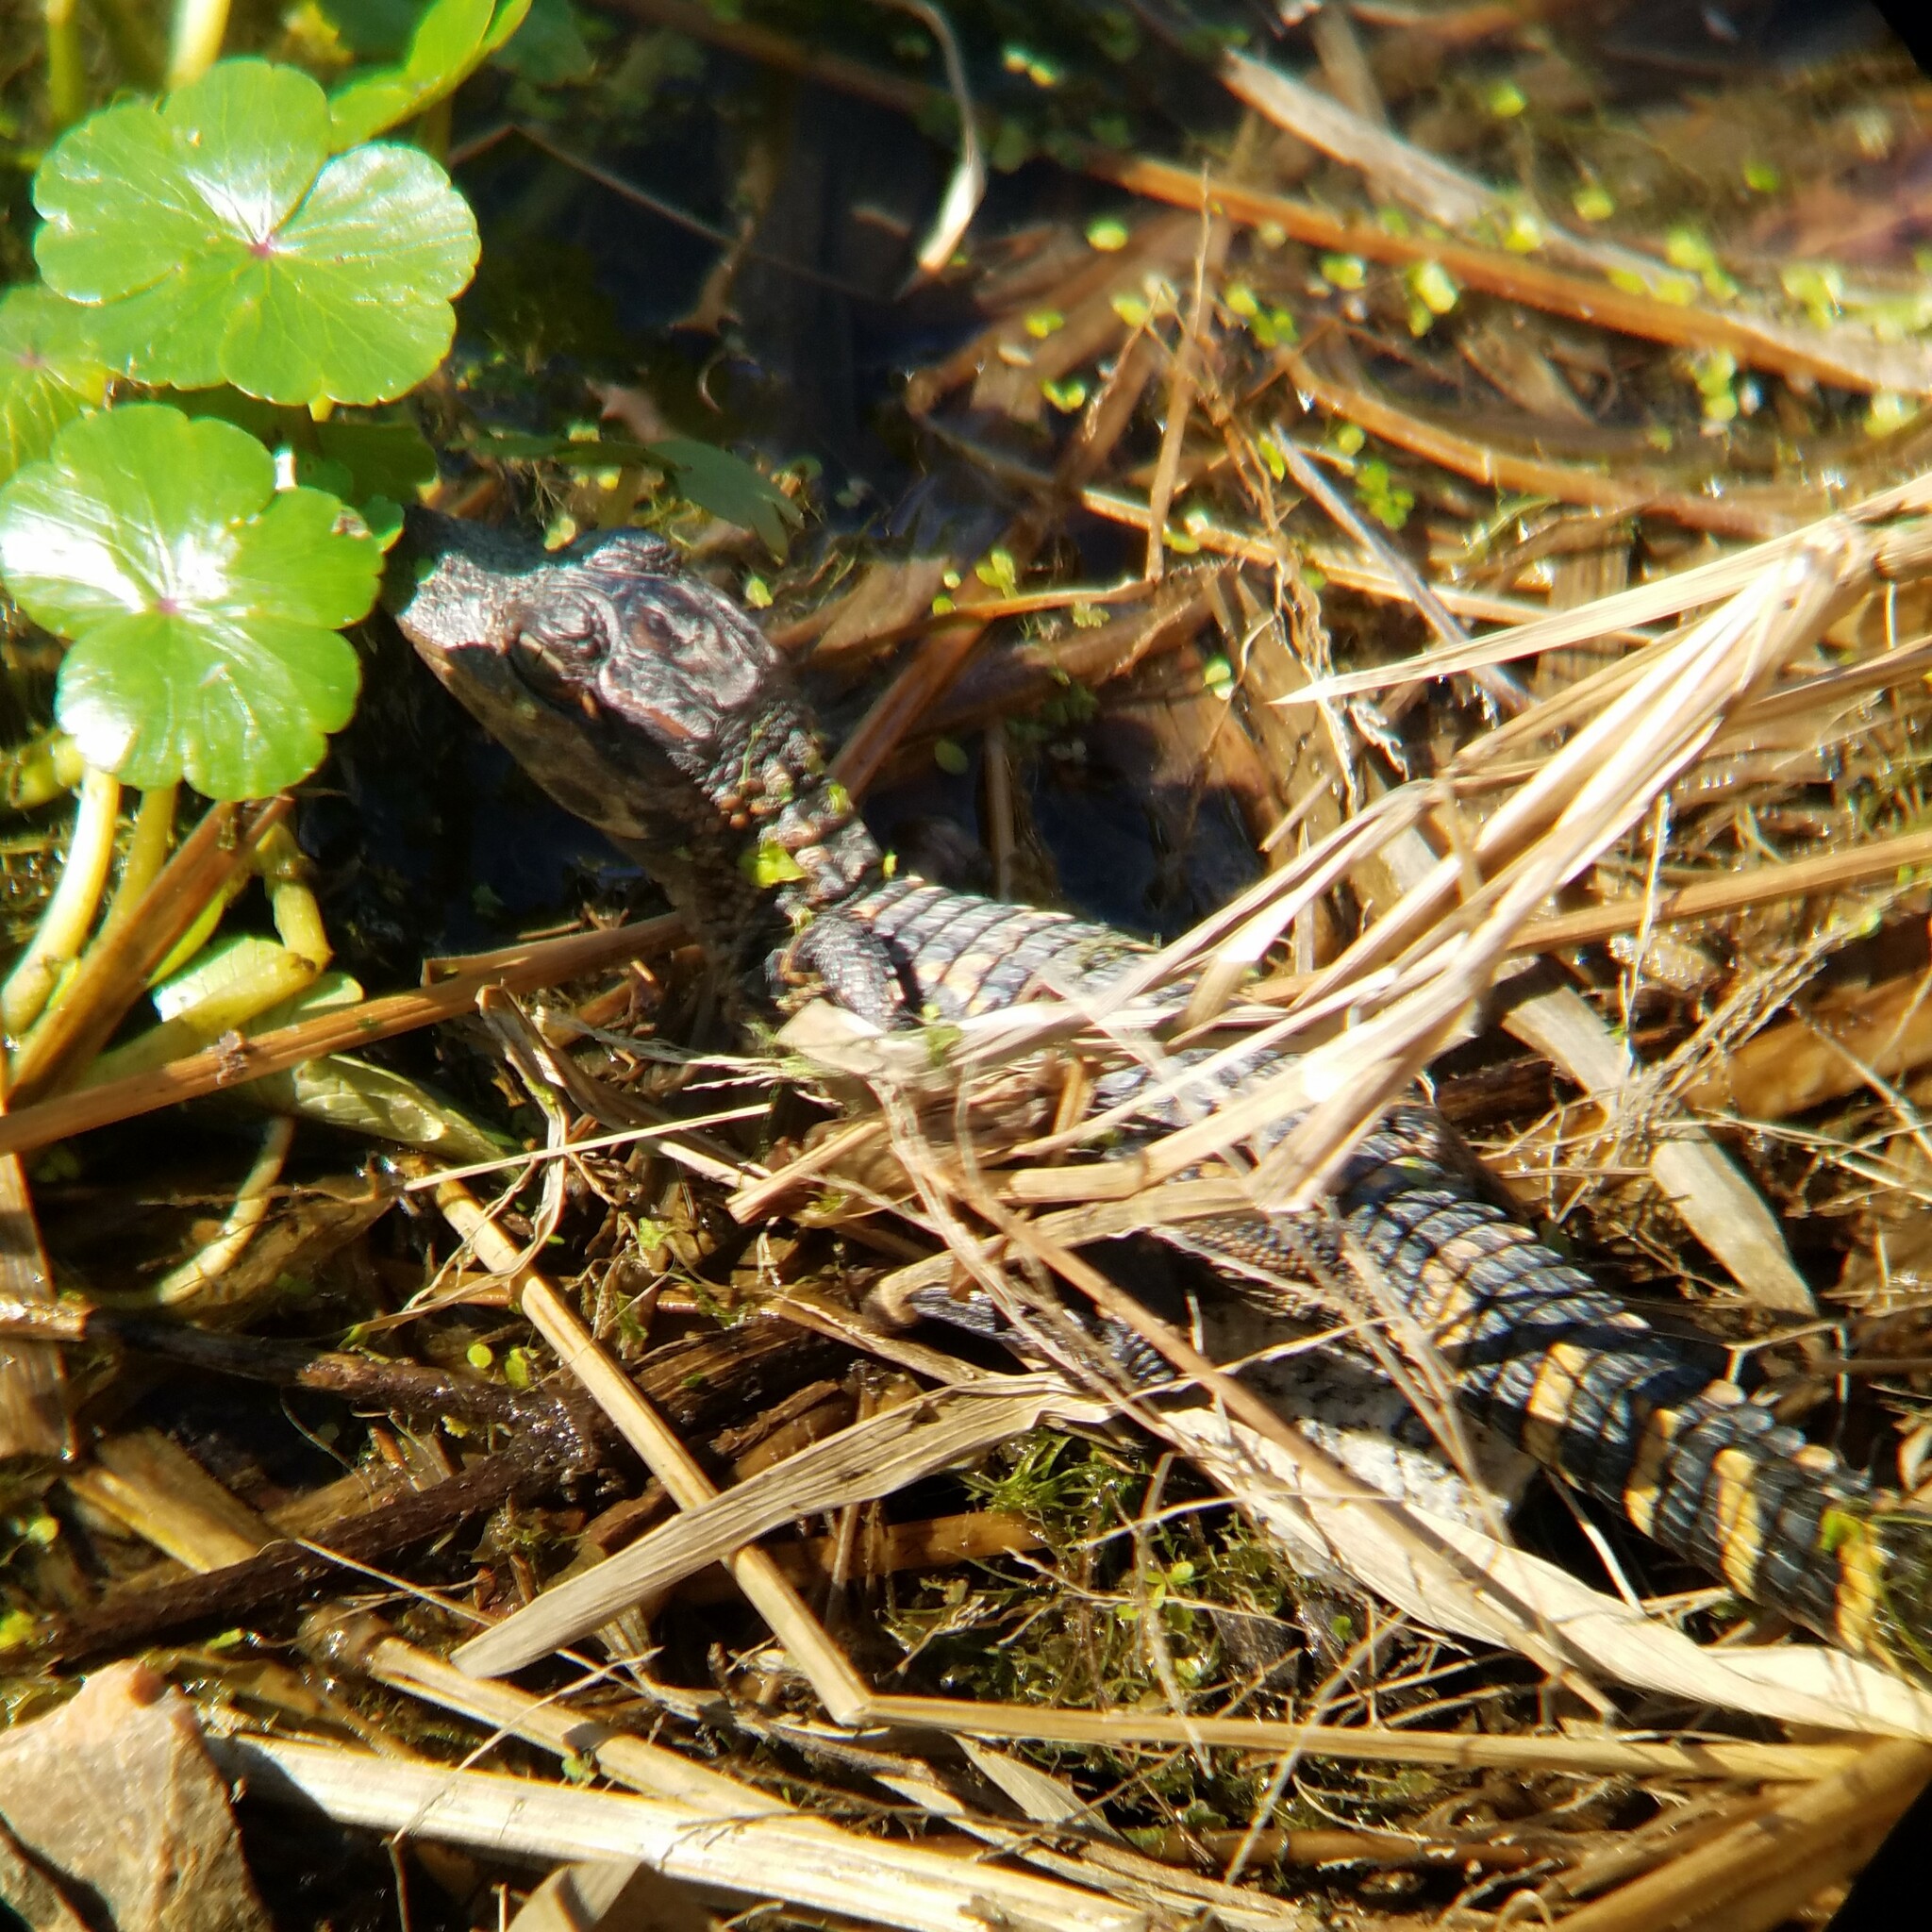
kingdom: Animalia
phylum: Chordata
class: Crocodylia
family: Alligatoridae
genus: Alligator
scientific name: Alligator mississippiensis
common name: American alligator
